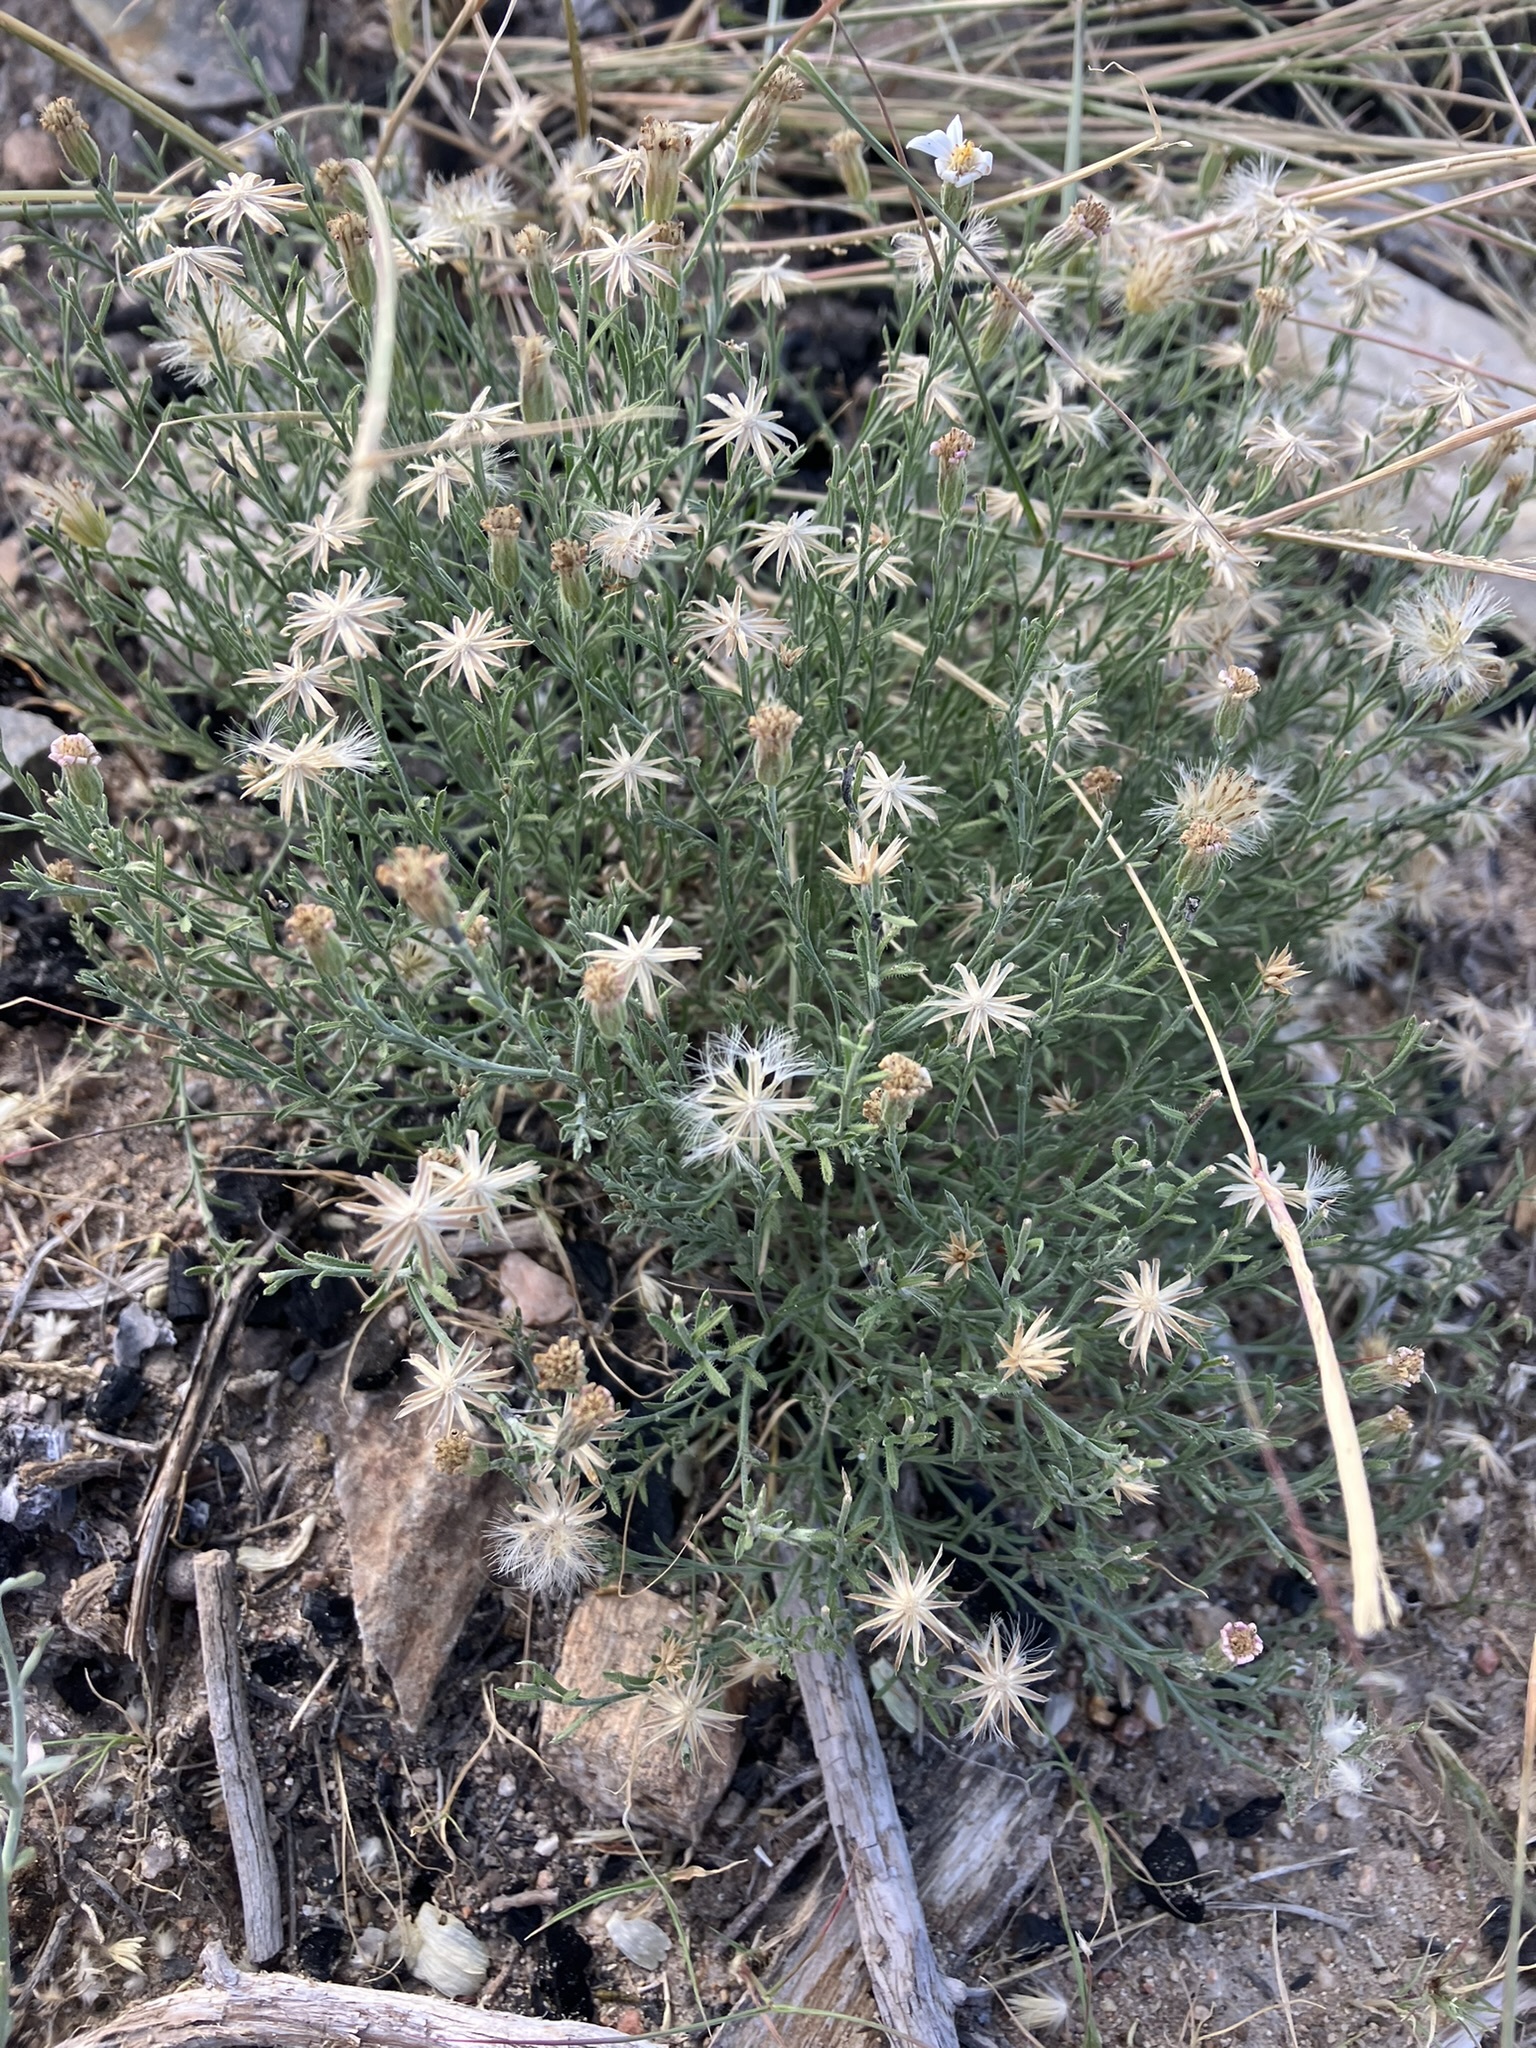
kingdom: Plantae
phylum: Tracheophyta
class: Magnoliopsida
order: Asterales
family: Asteraceae
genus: Chaetopappa
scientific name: Chaetopappa ericoides
